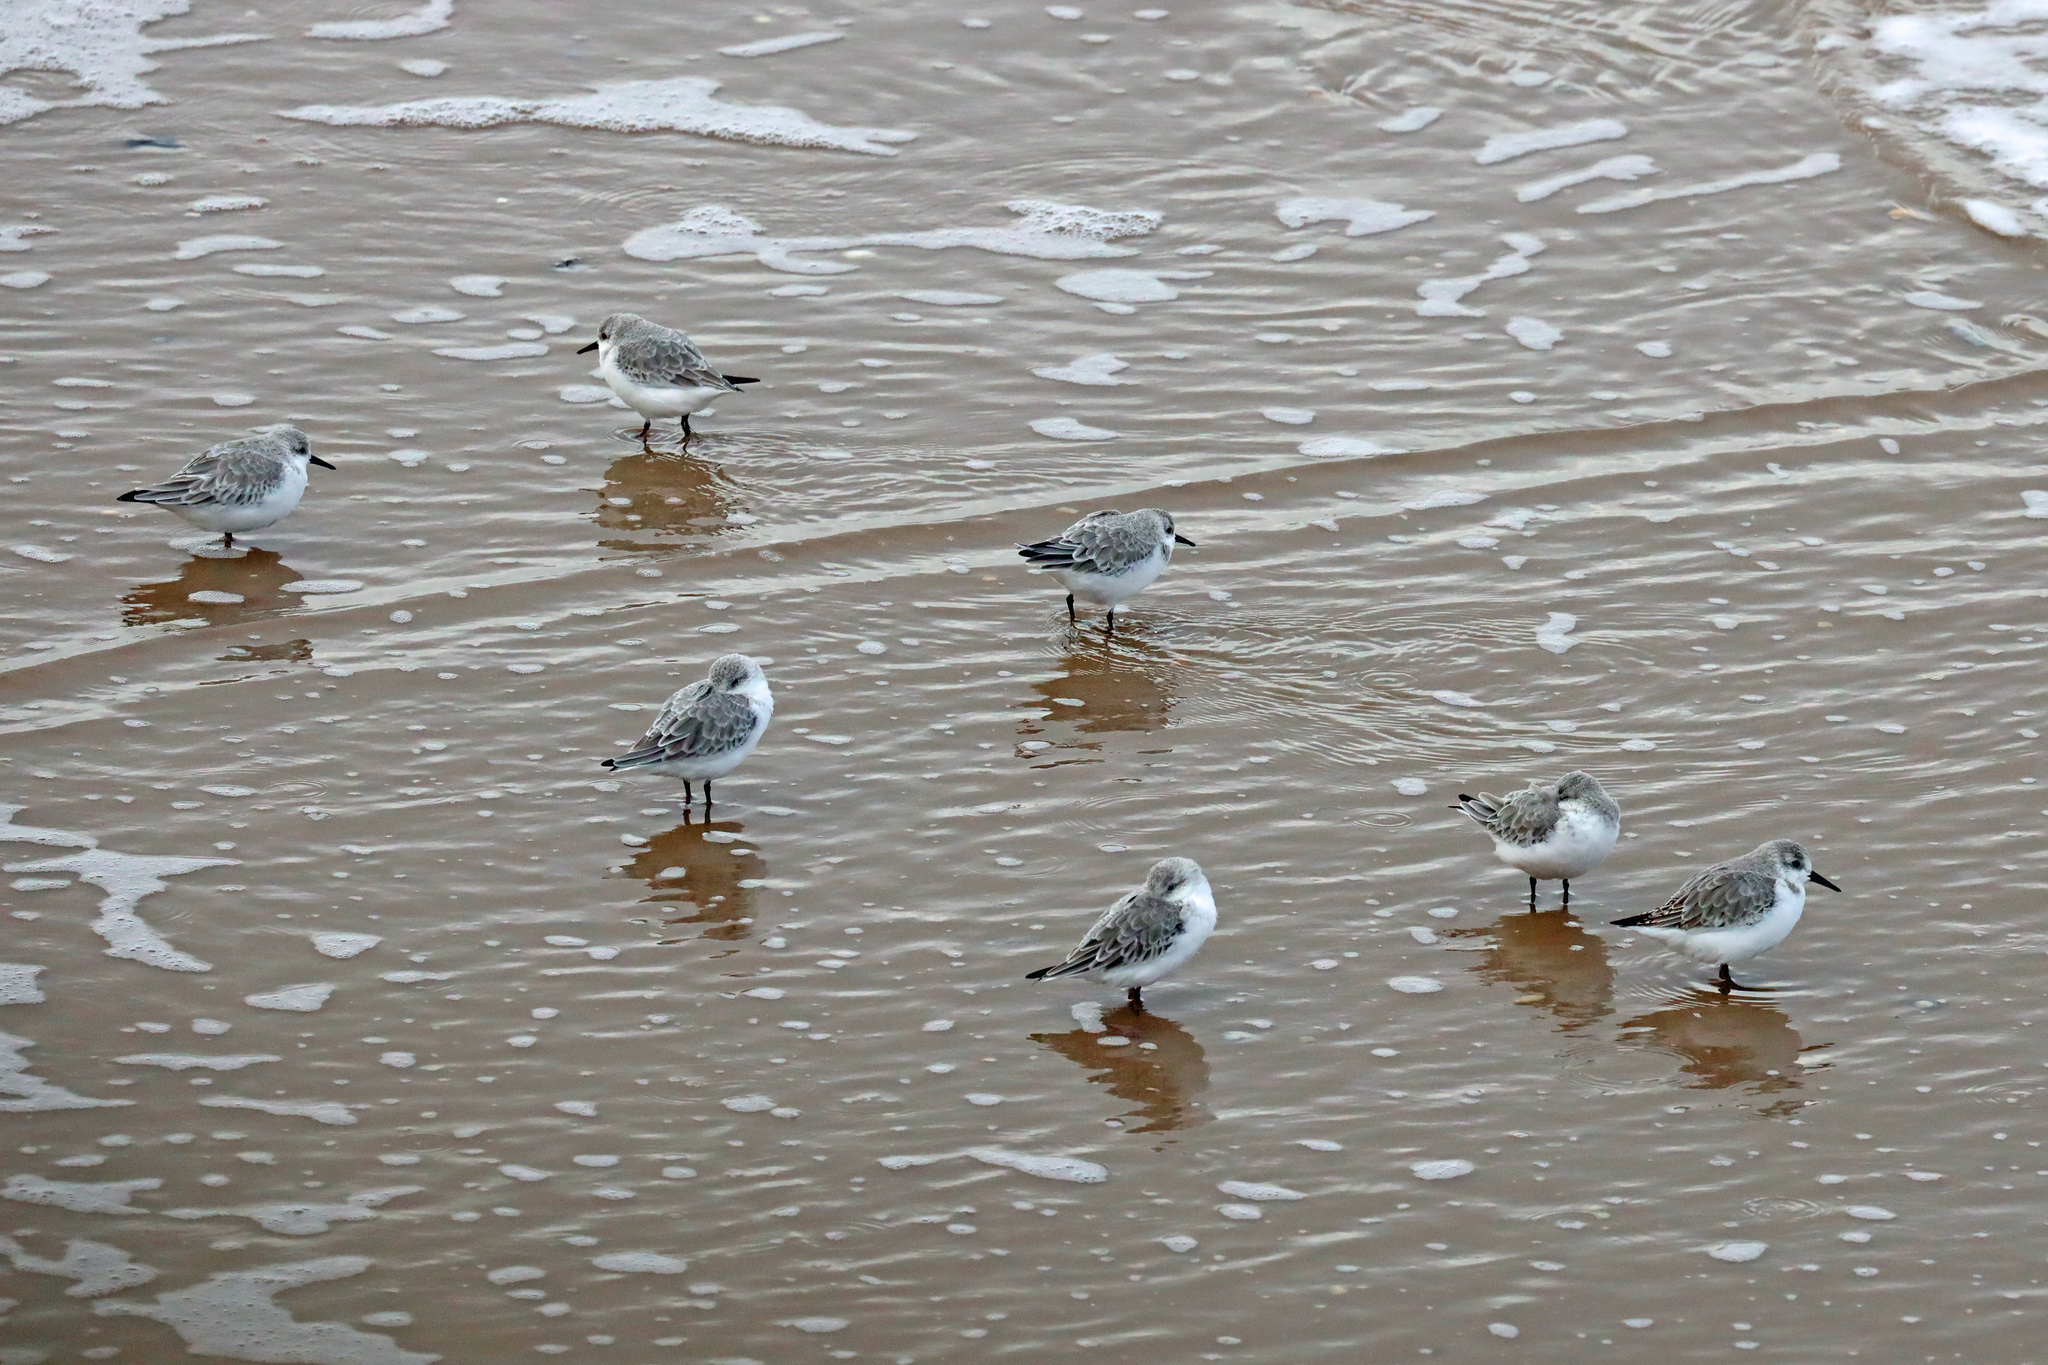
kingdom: Animalia
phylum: Chordata
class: Aves
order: Charadriiformes
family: Scolopacidae
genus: Calidris
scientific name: Calidris alba
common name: Sanderling
